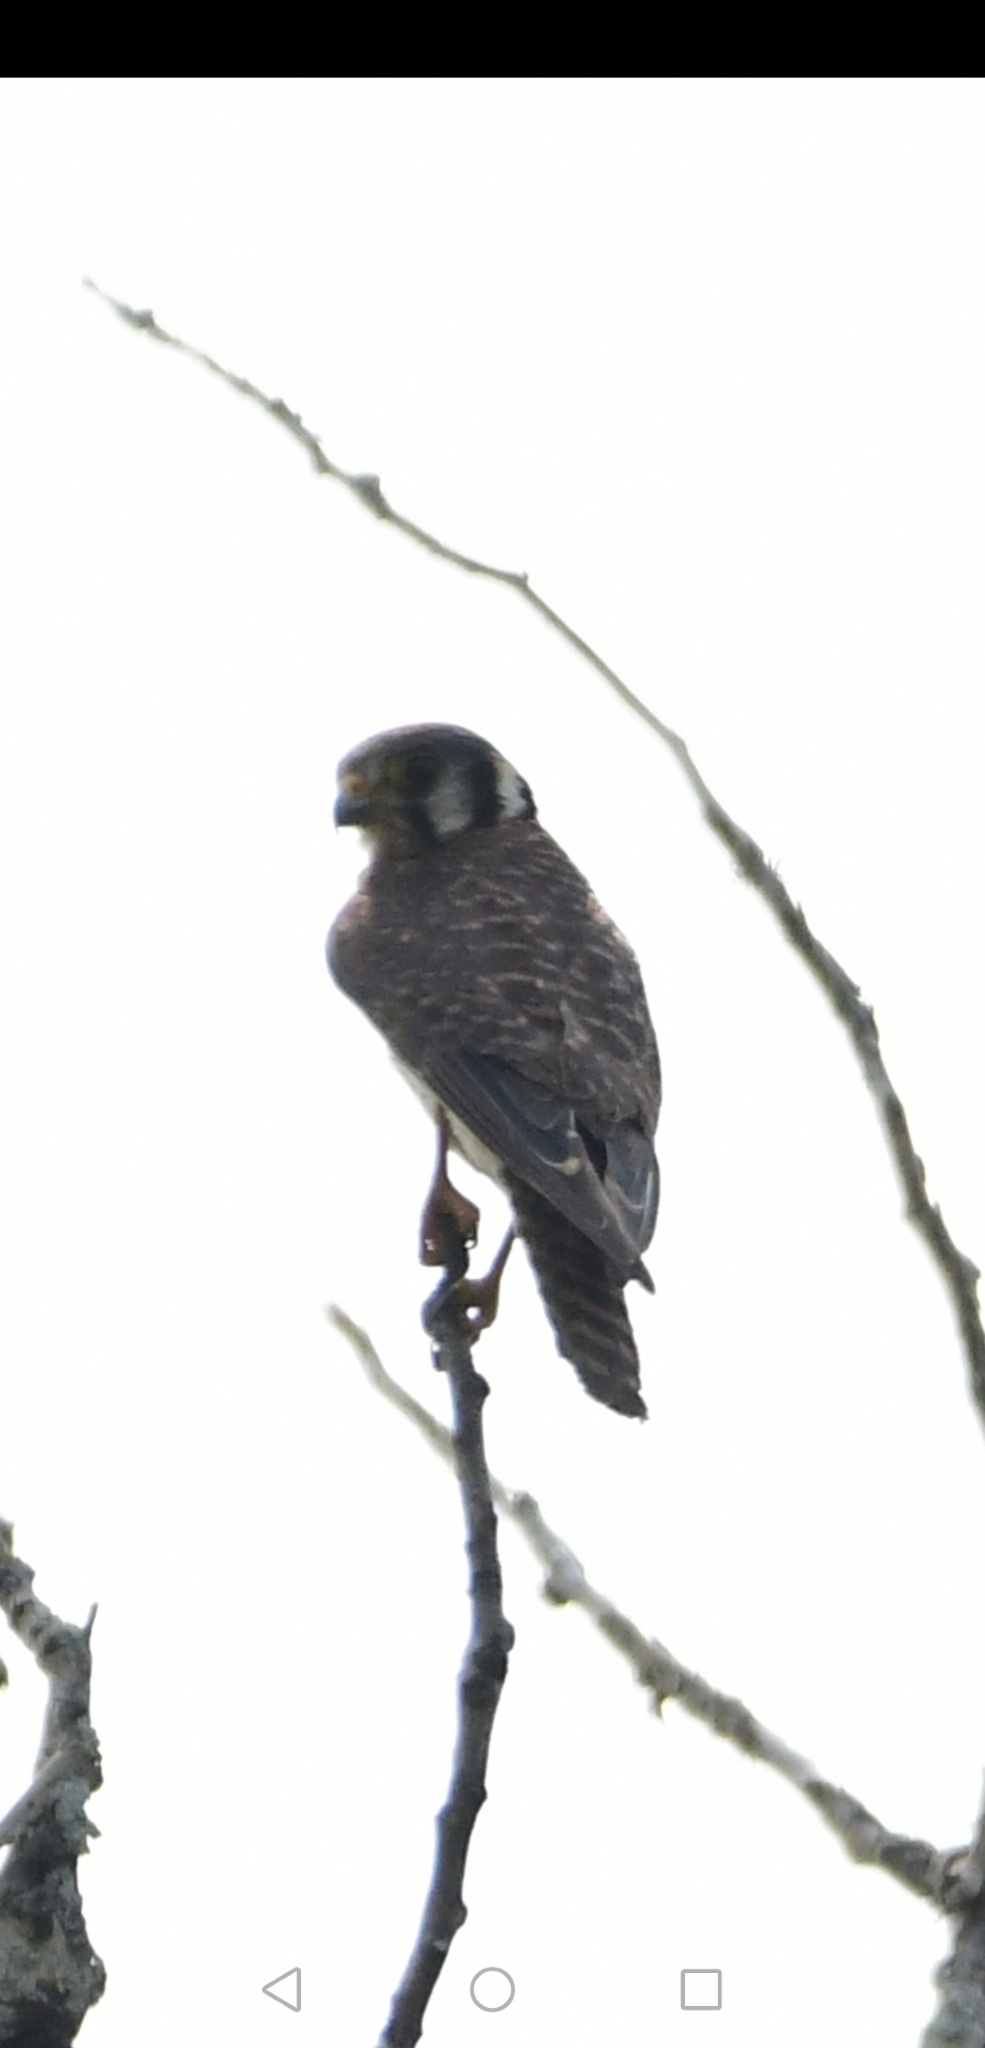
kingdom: Animalia
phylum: Chordata
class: Aves
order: Falconiformes
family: Falconidae
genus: Falco
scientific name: Falco sparverius
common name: American kestrel
